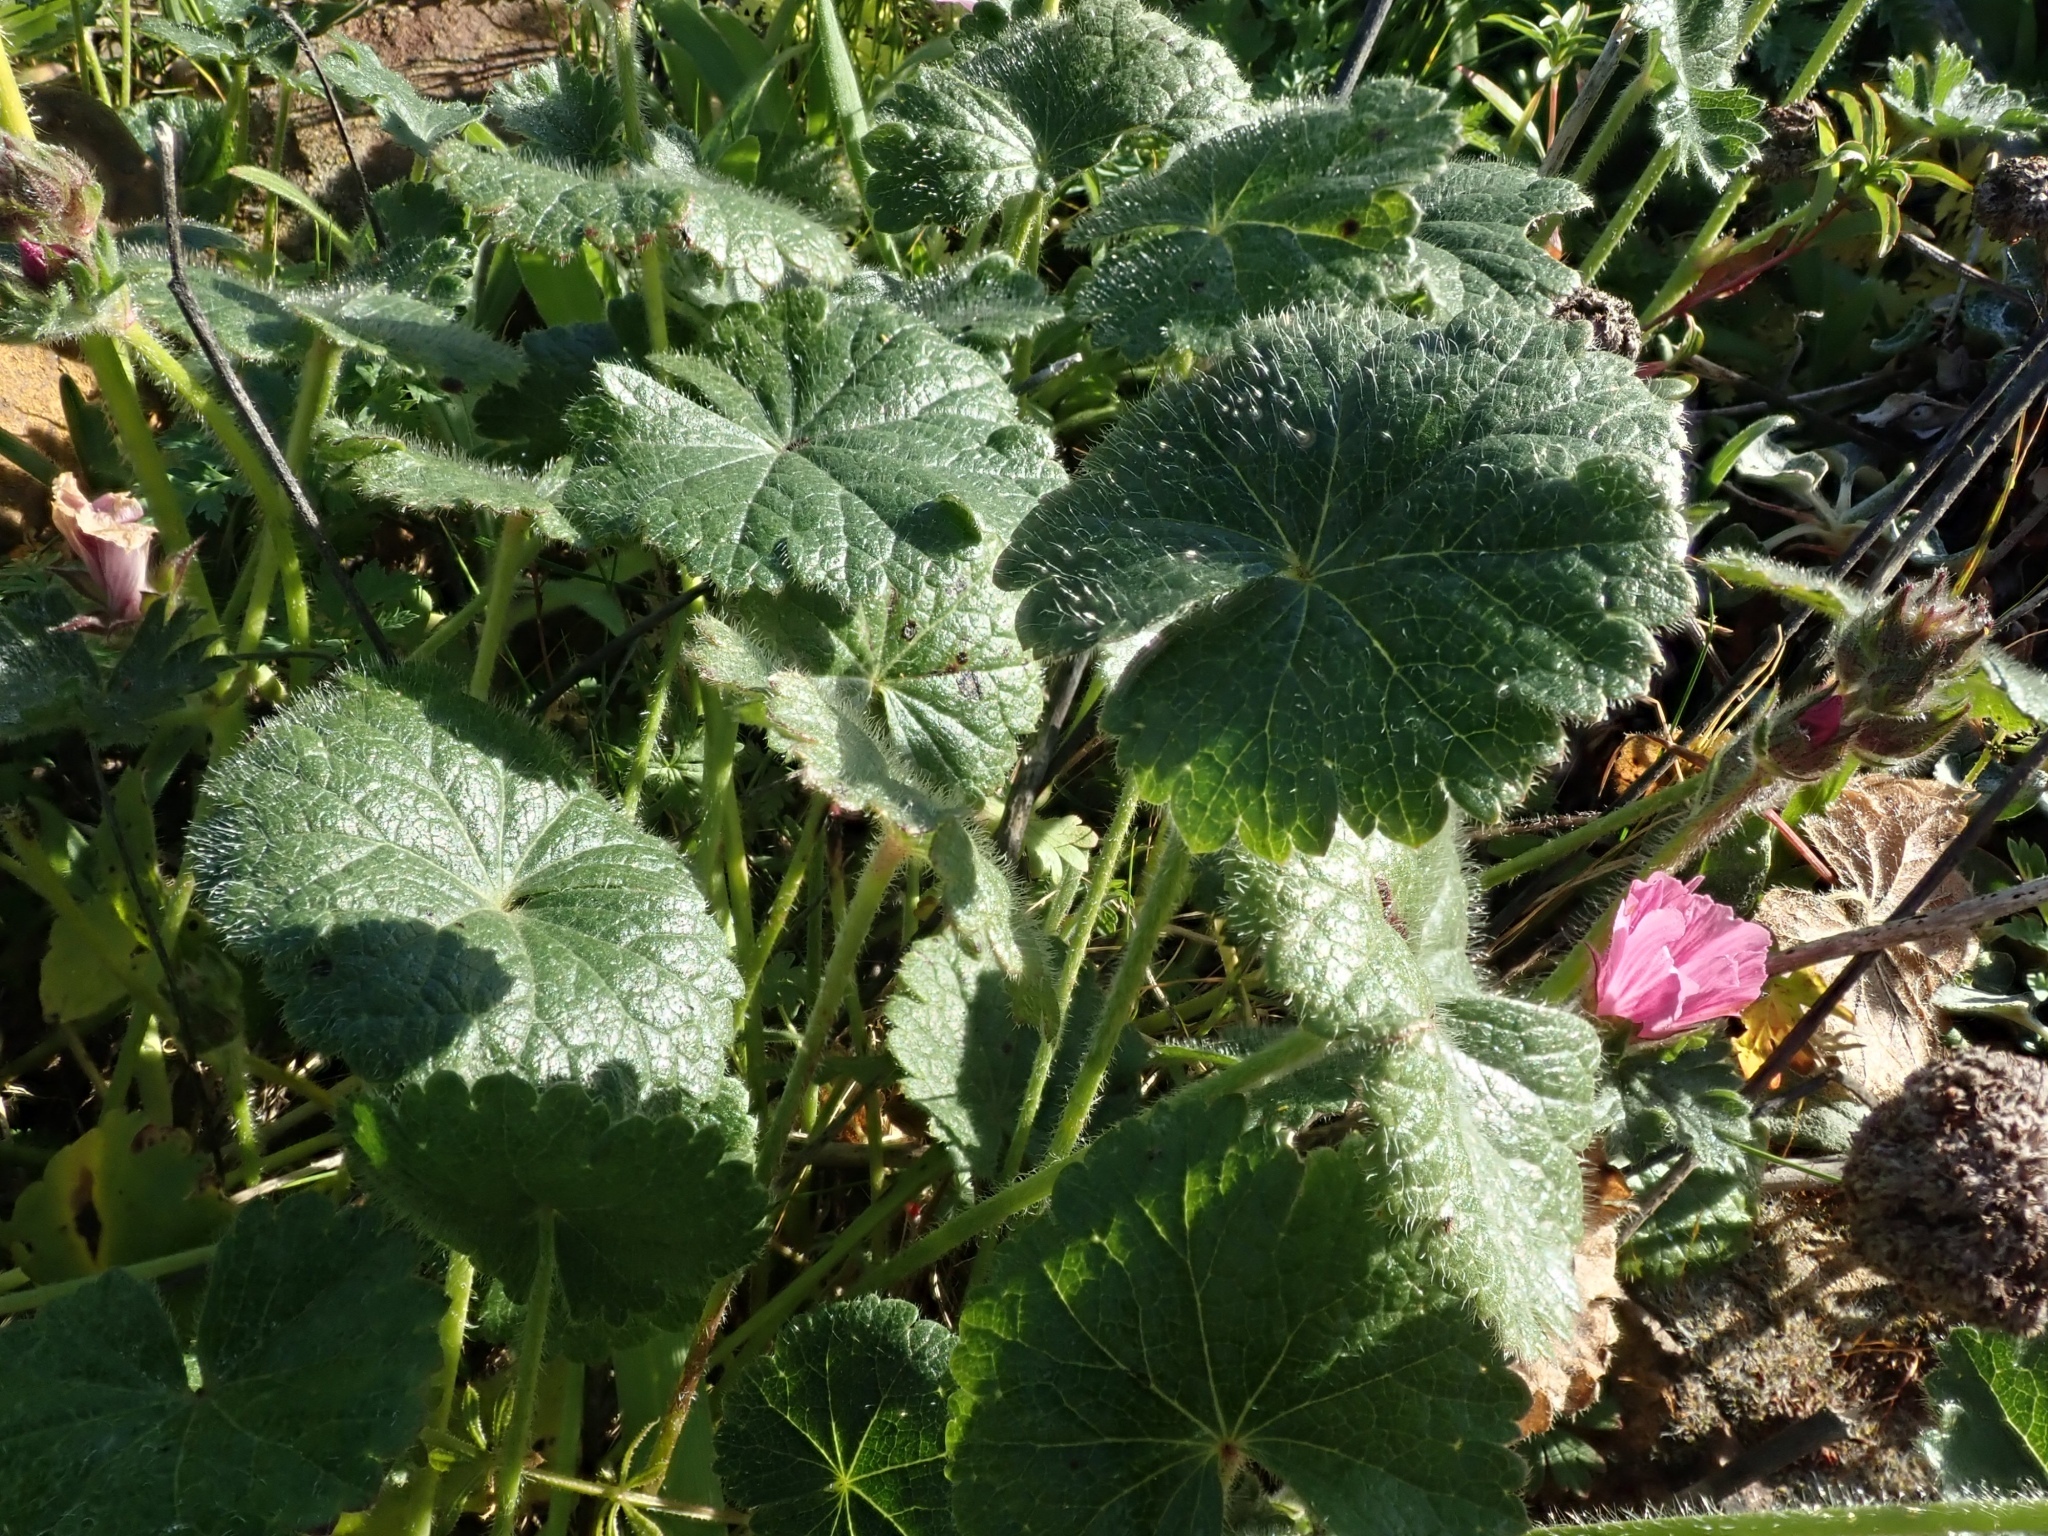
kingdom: Plantae
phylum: Tracheophyta
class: Magnoliopsida
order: Malvales
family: Malvaceae
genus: Sidalcea
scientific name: Sidalcea malviflora
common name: Greek mallow
